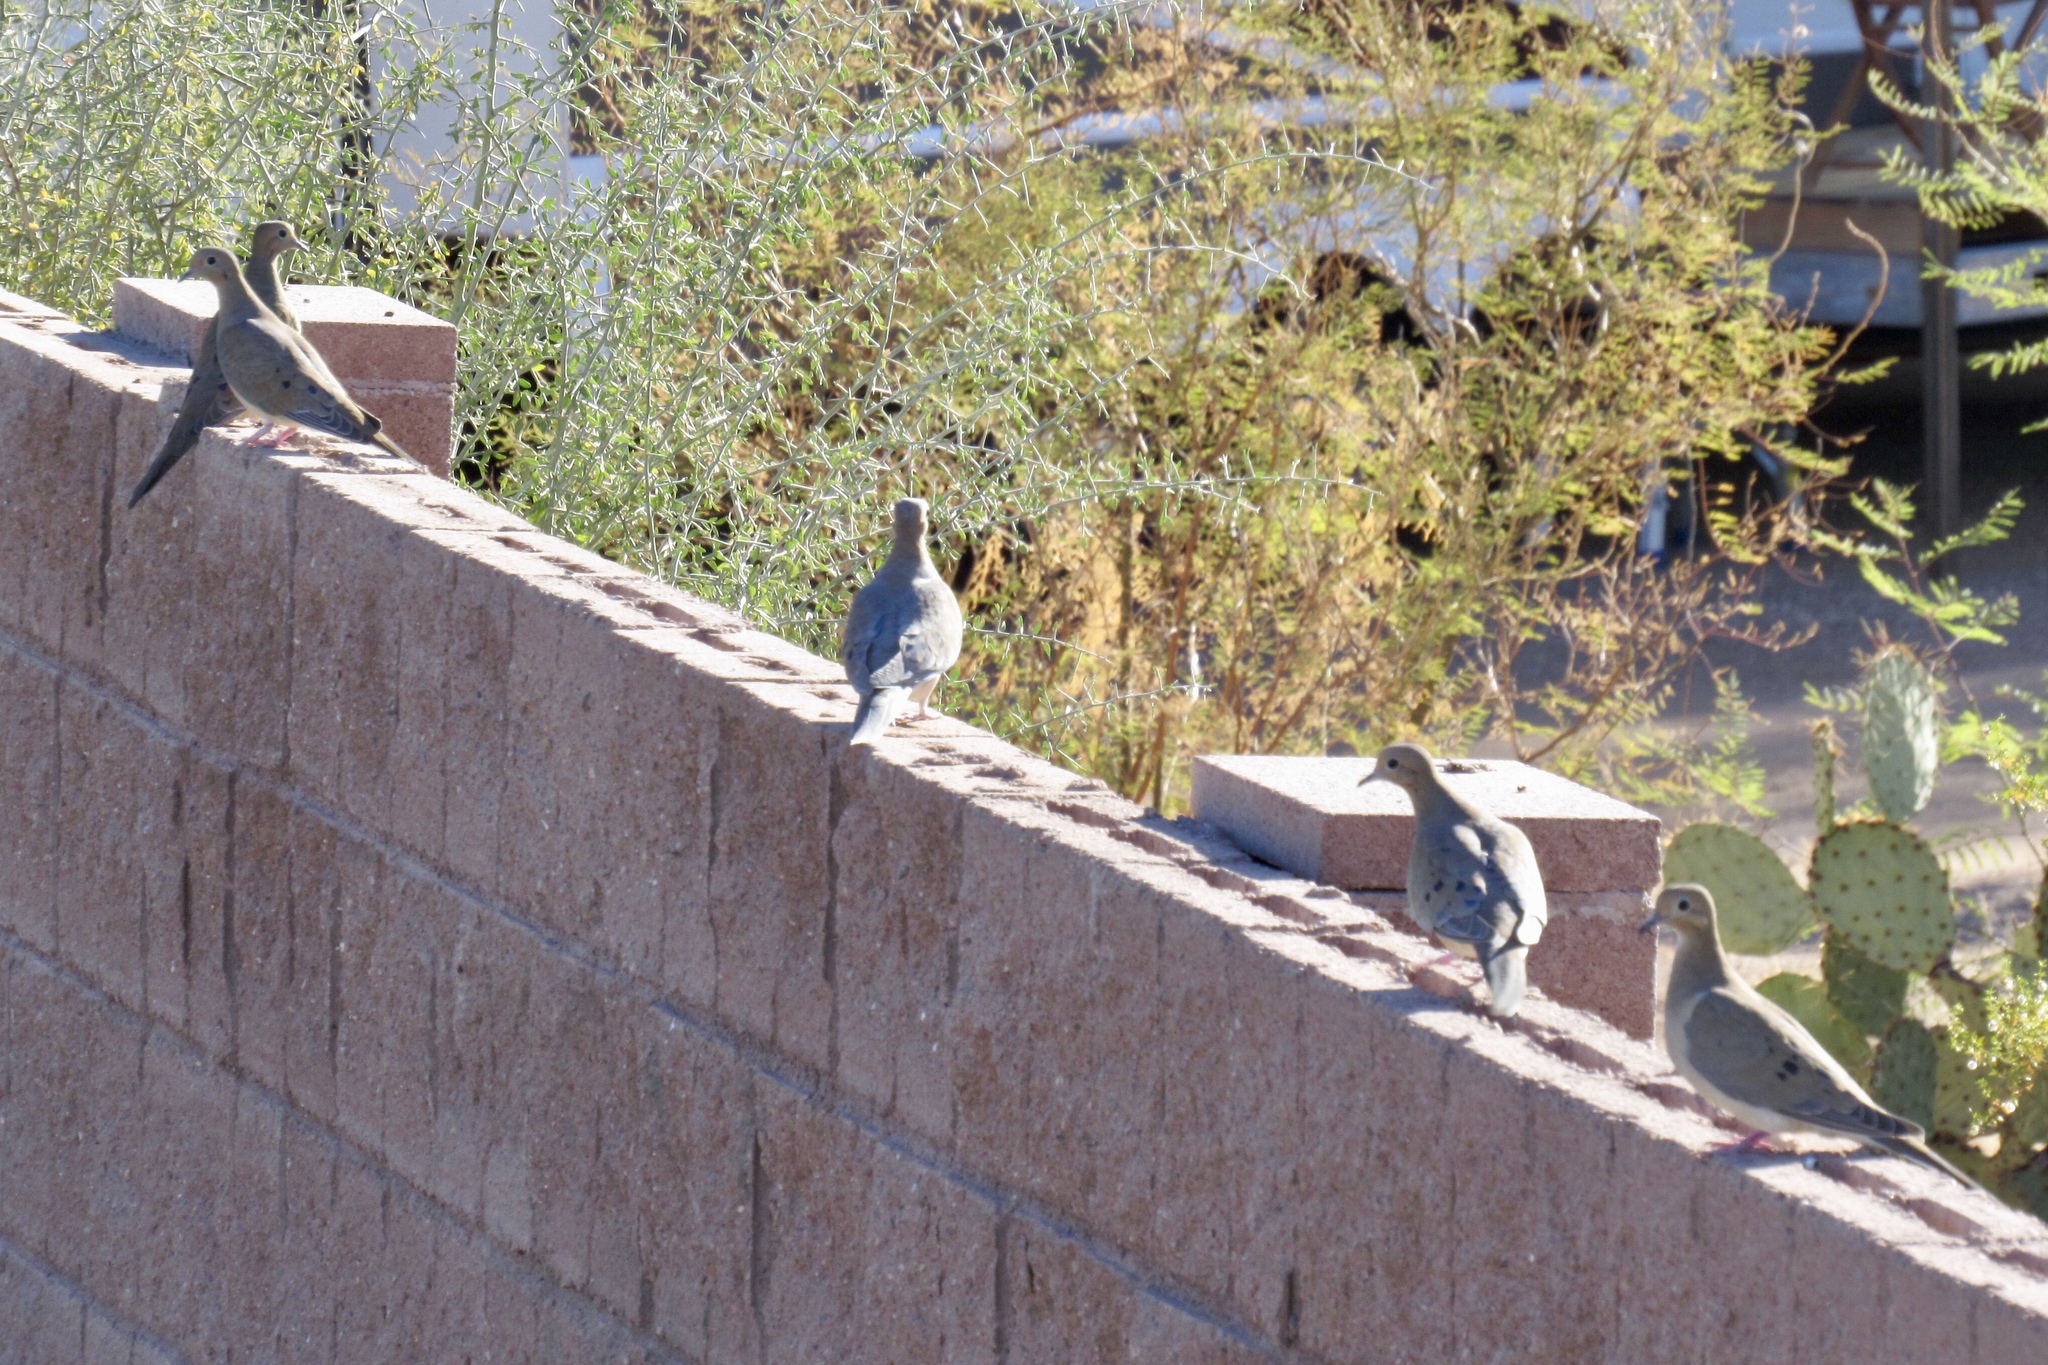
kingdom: Animalia
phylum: Chordata
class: Aves
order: Columbiformes
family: Columbidae
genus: Zenaida
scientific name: Zenaida macroura
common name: Mourning dove
